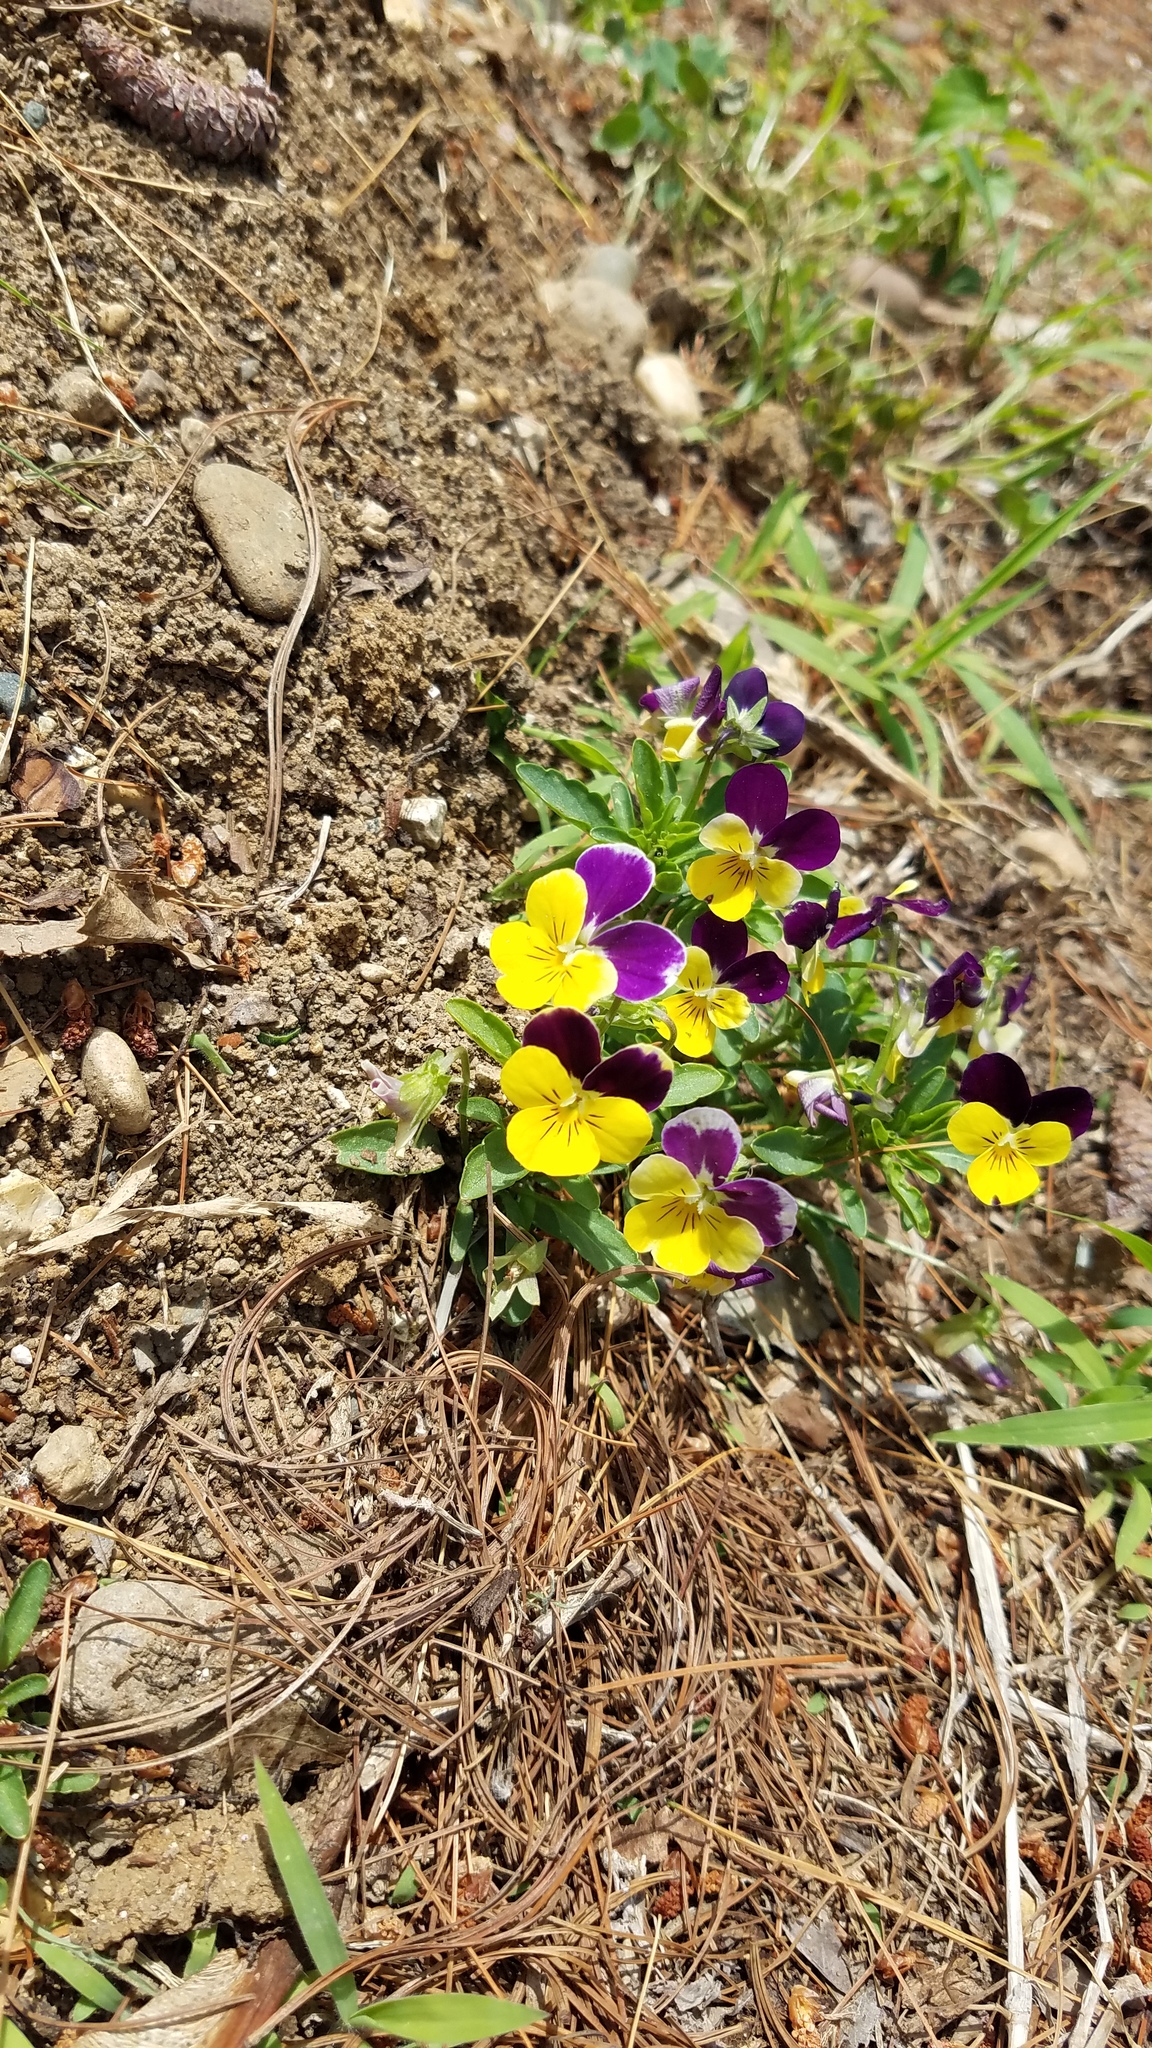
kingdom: Plantae
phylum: Tracheophyta
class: Magnoliopsida
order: Malpighiales
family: Violaceae
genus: Viola
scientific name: Viola williamsii
